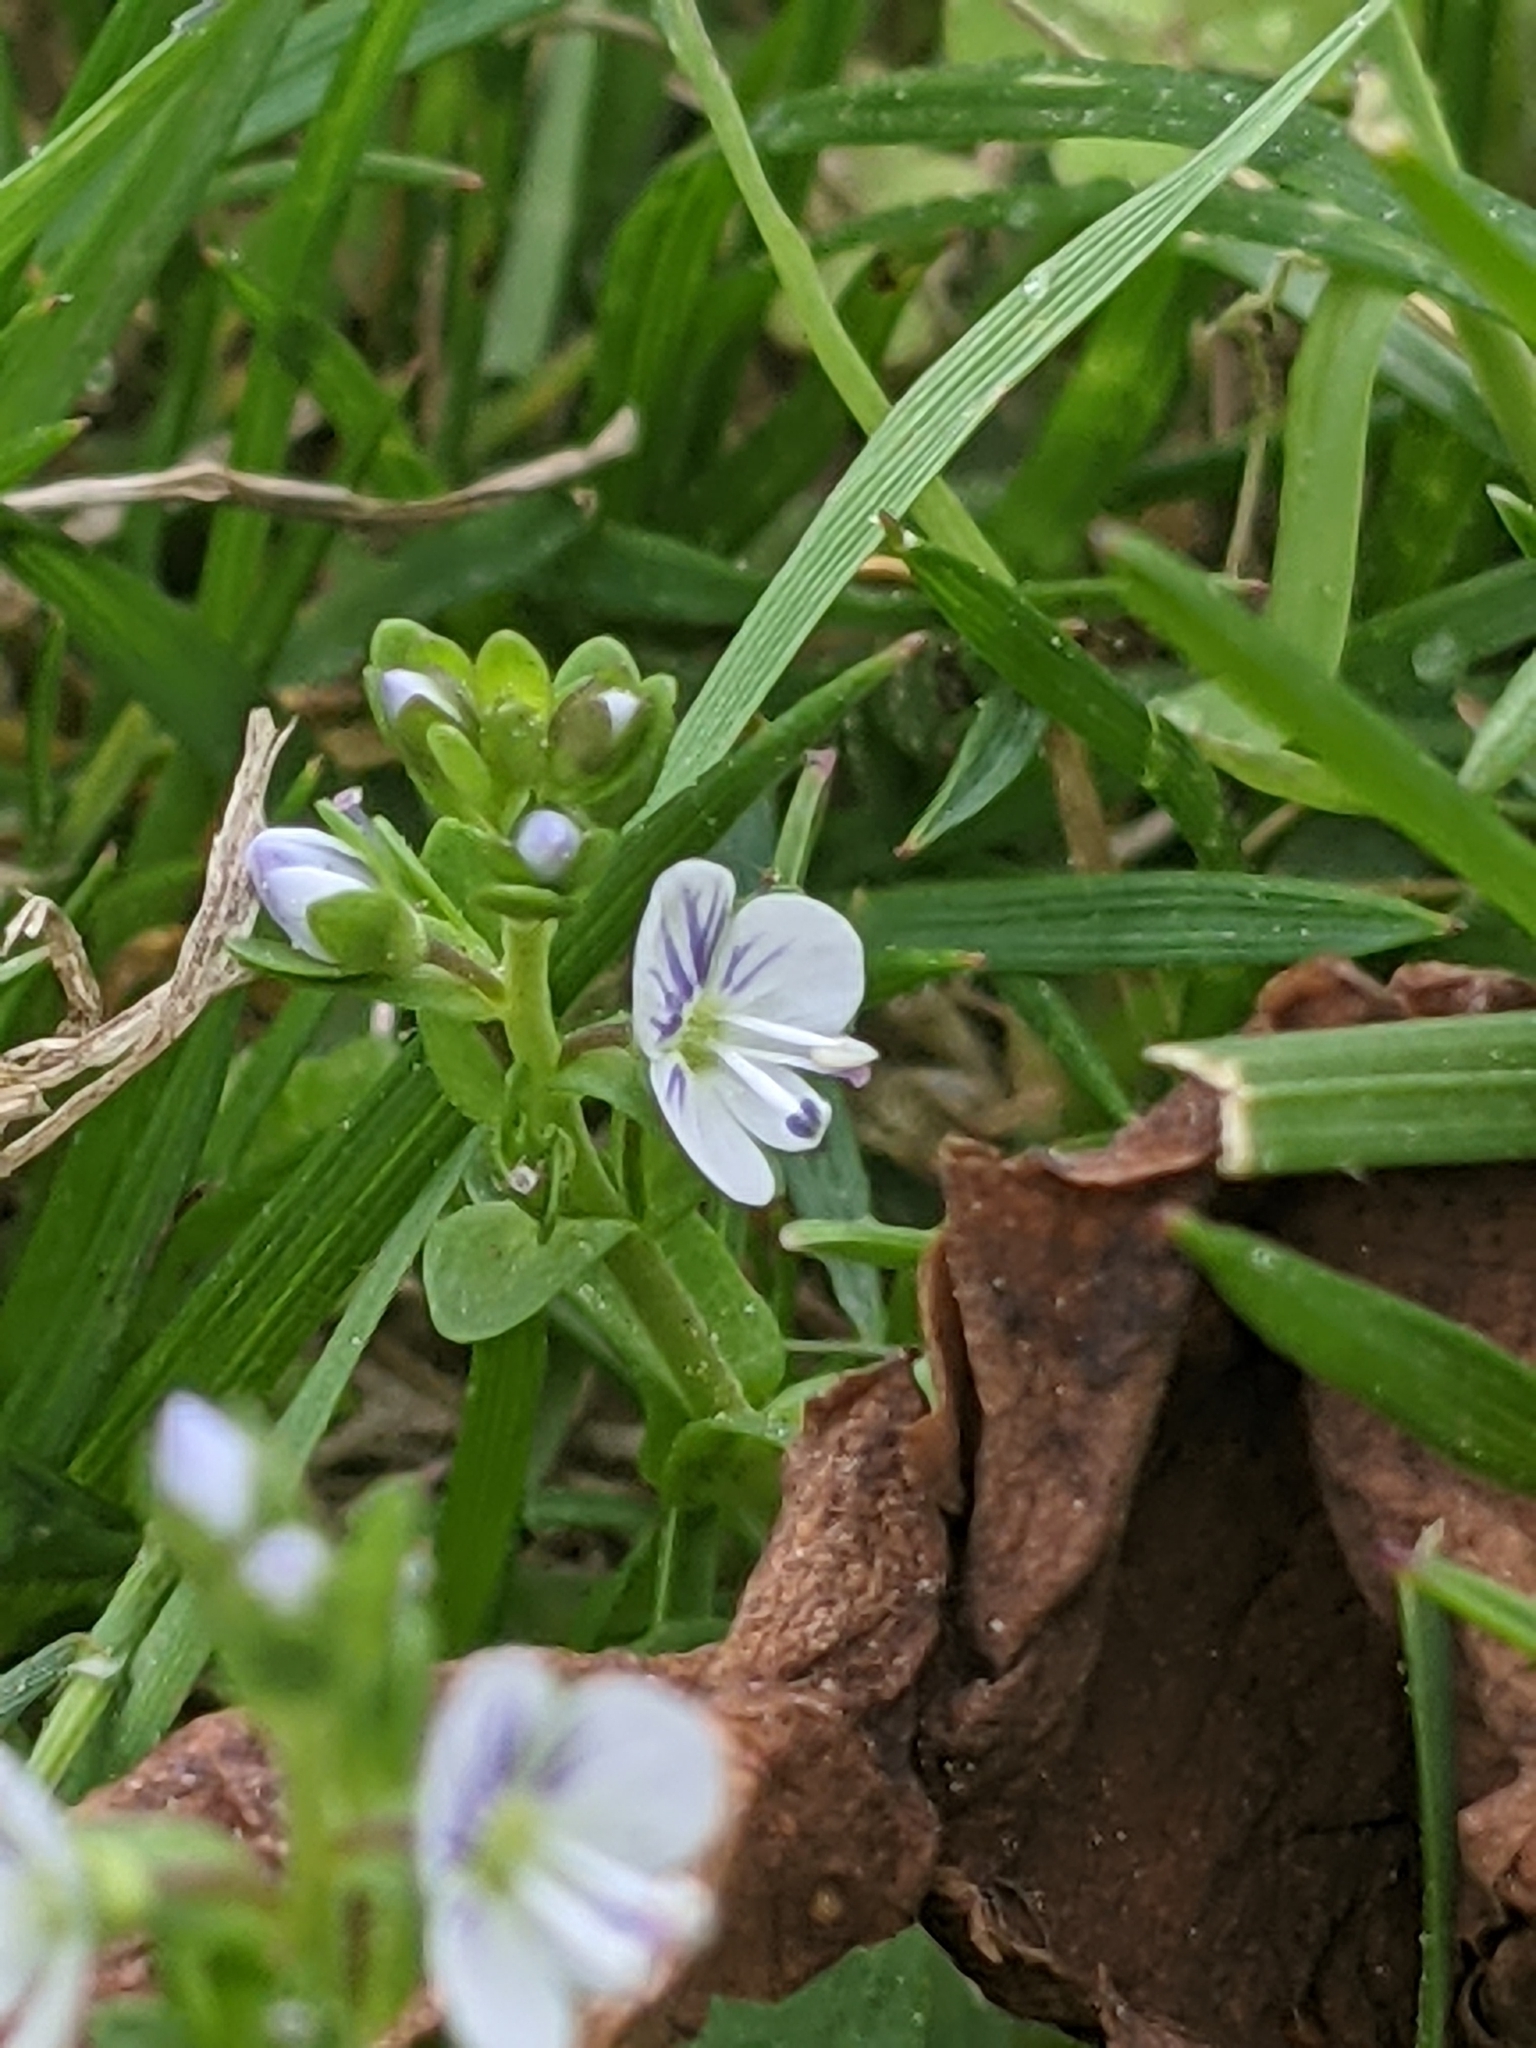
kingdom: Plantae
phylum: Tracheophyta
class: Magnoliopsida
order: Lamiales
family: Plantaginaceae
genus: Veronica
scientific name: Veronica serpyllifolia
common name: Thyme-leaved speedwell
